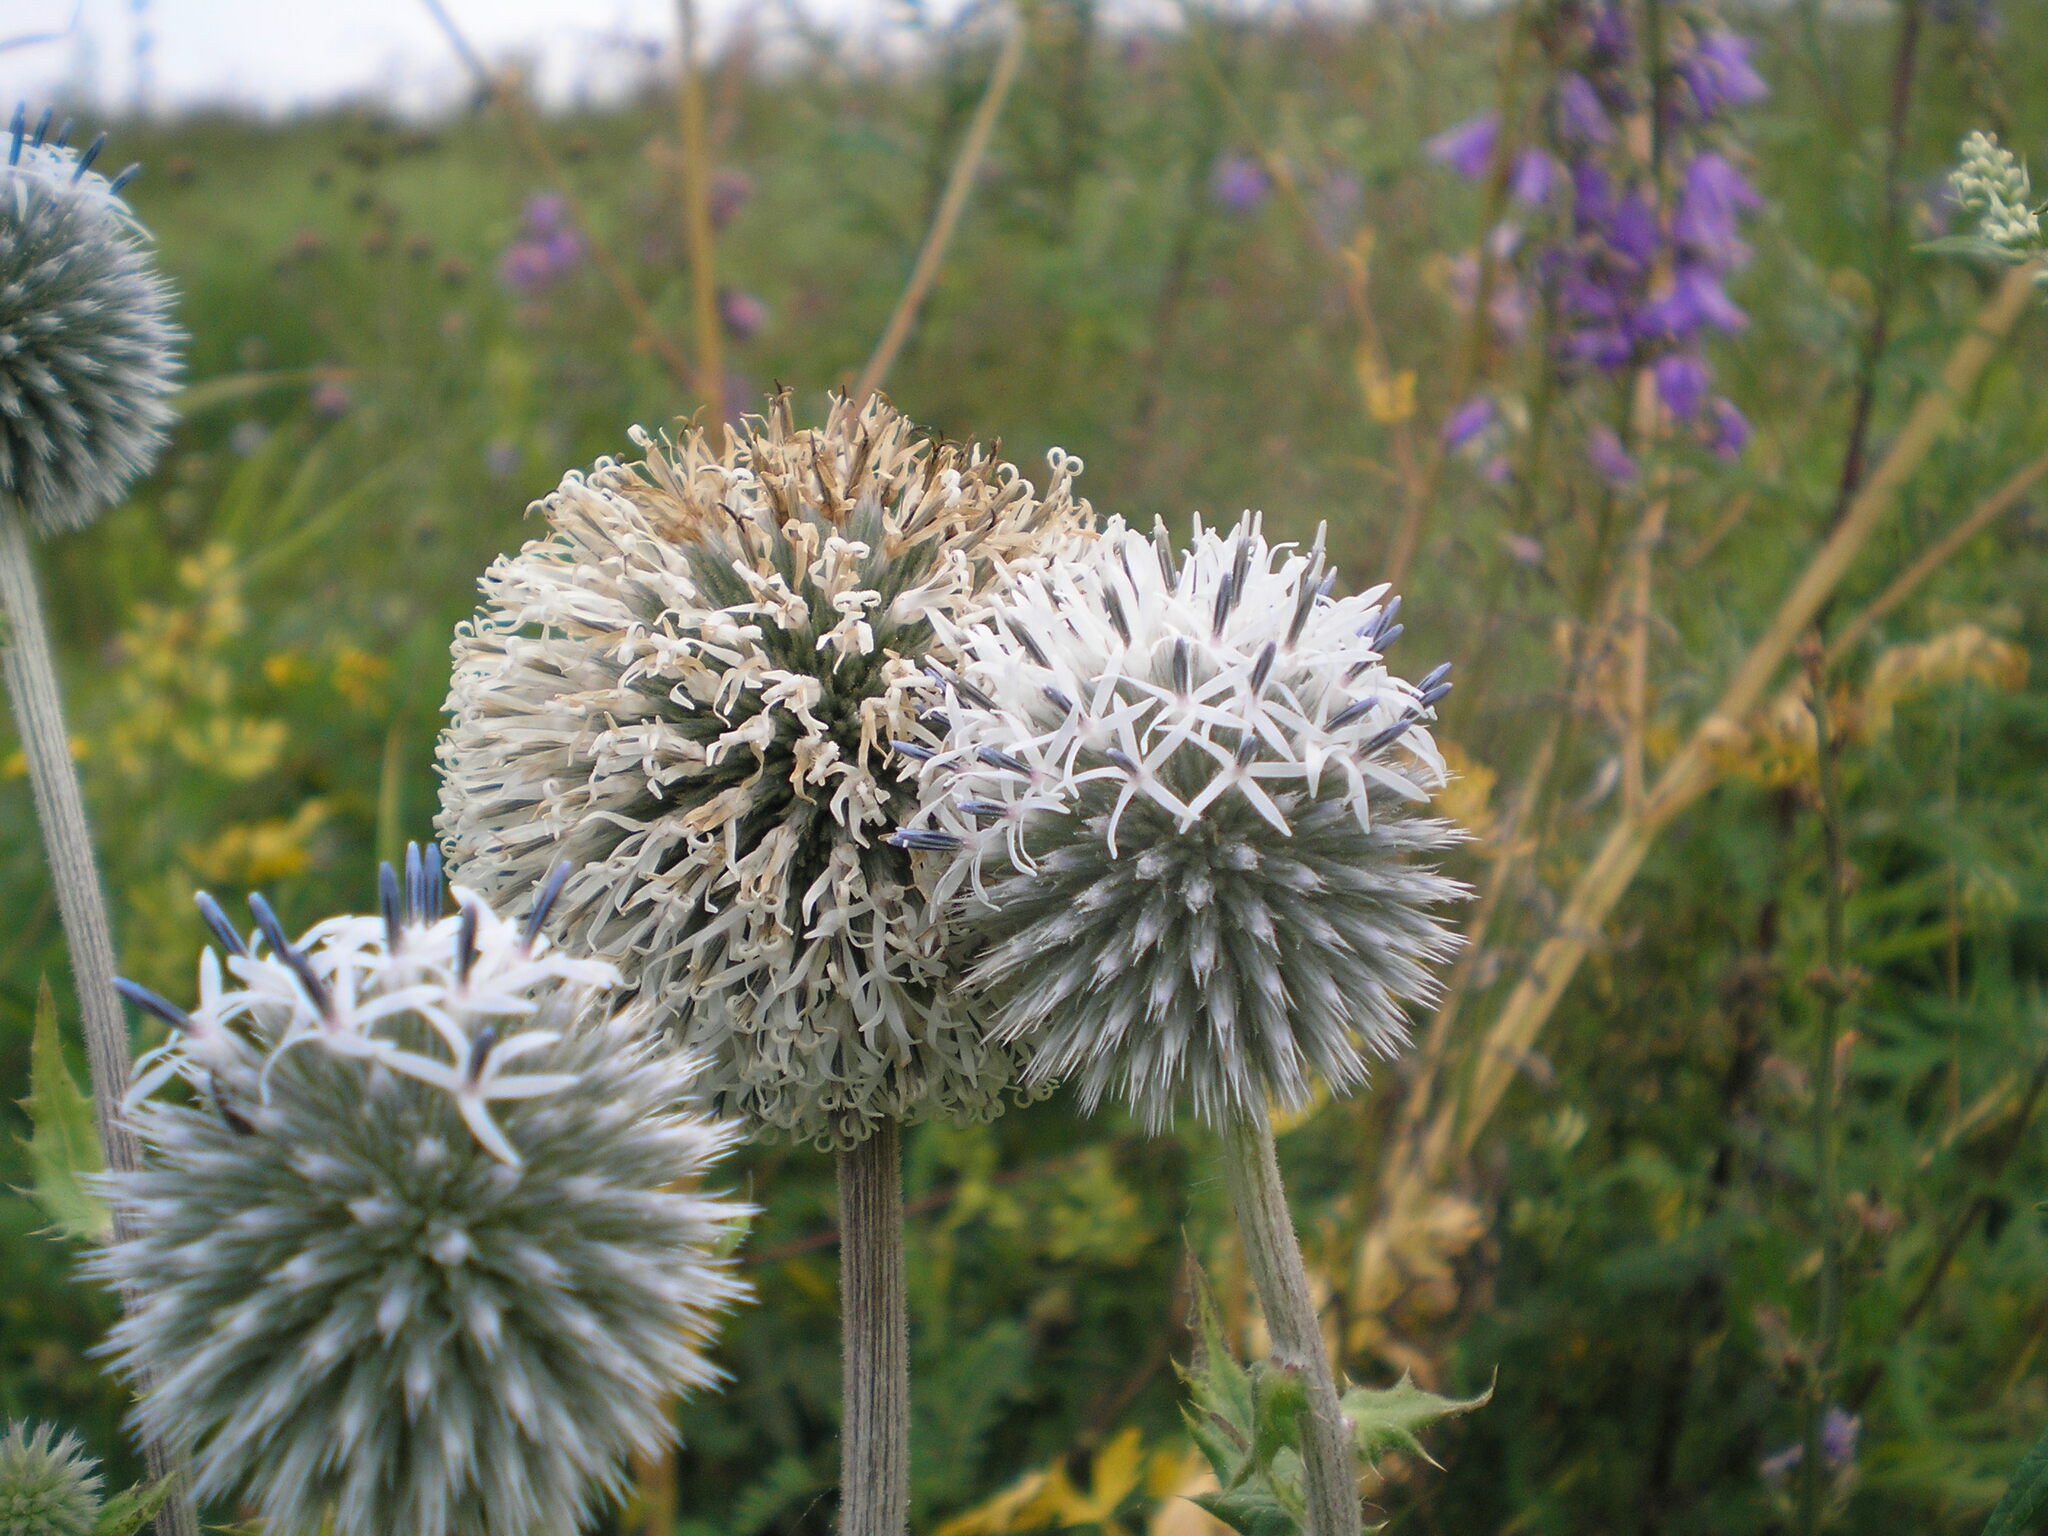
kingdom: Plantae
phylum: Tracheophyta
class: Magnoliopsida
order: Asterales
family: Asteraceae
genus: Echinops
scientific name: Echinops sphaerocephalus
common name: Glandular globe-thistle
